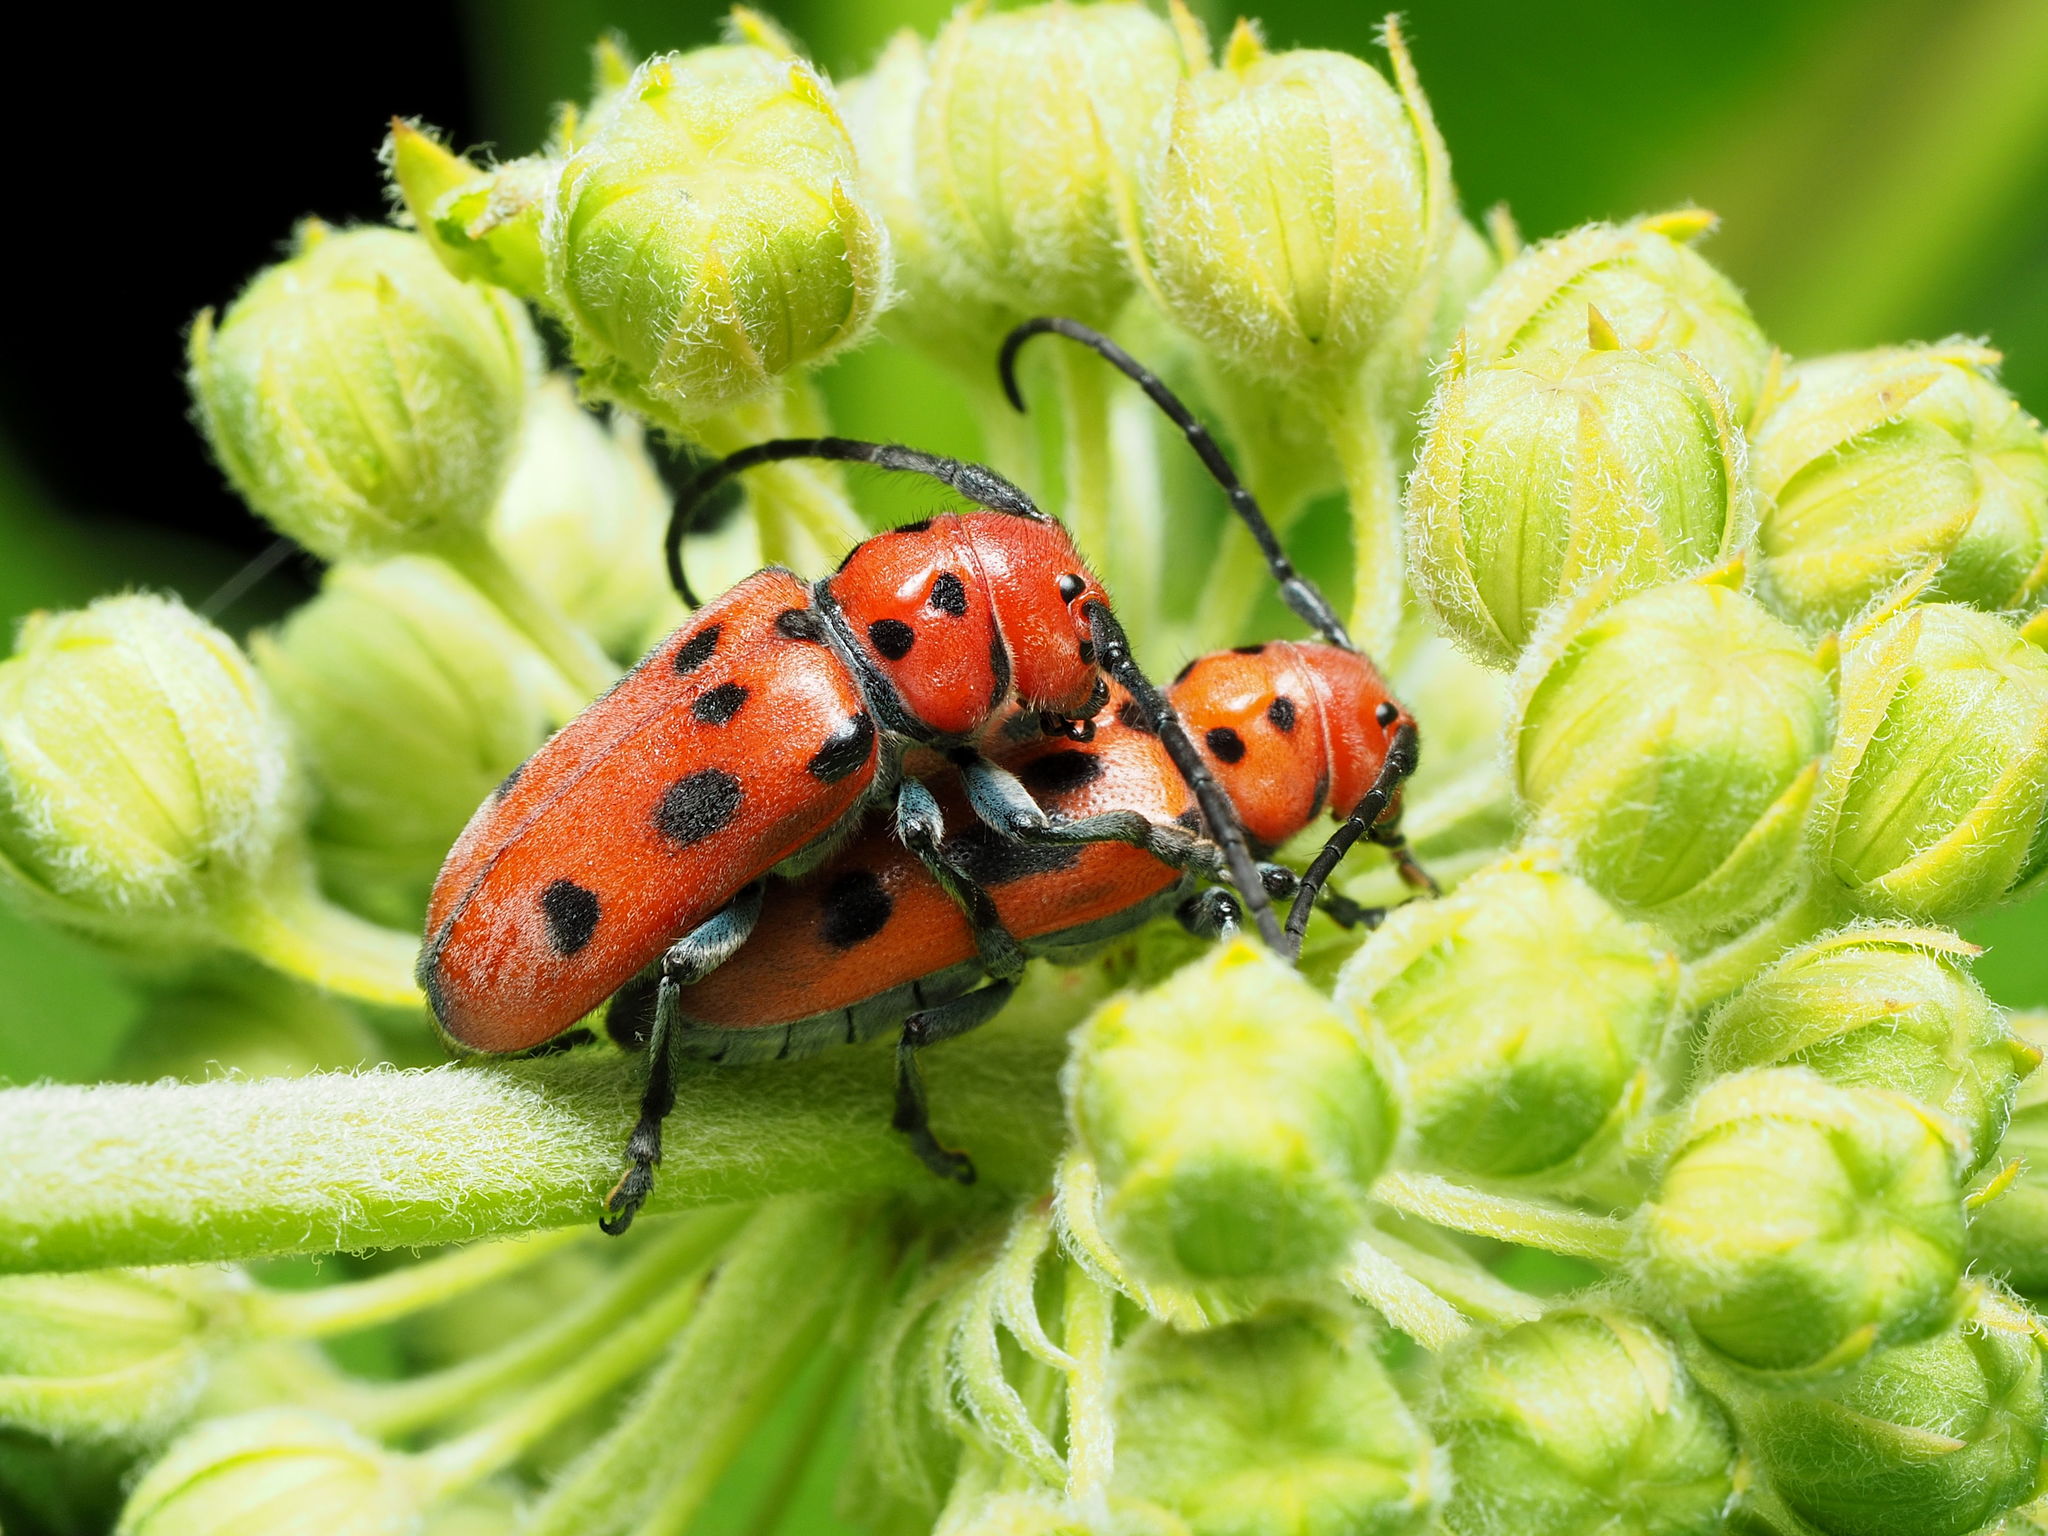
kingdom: Animalia
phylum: Arthropoda
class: Insecta
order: Coleoptera
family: Cerambycidae
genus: Tetraopes
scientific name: Tetraopes tetrophthalmus
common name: Red milkweed beetle
